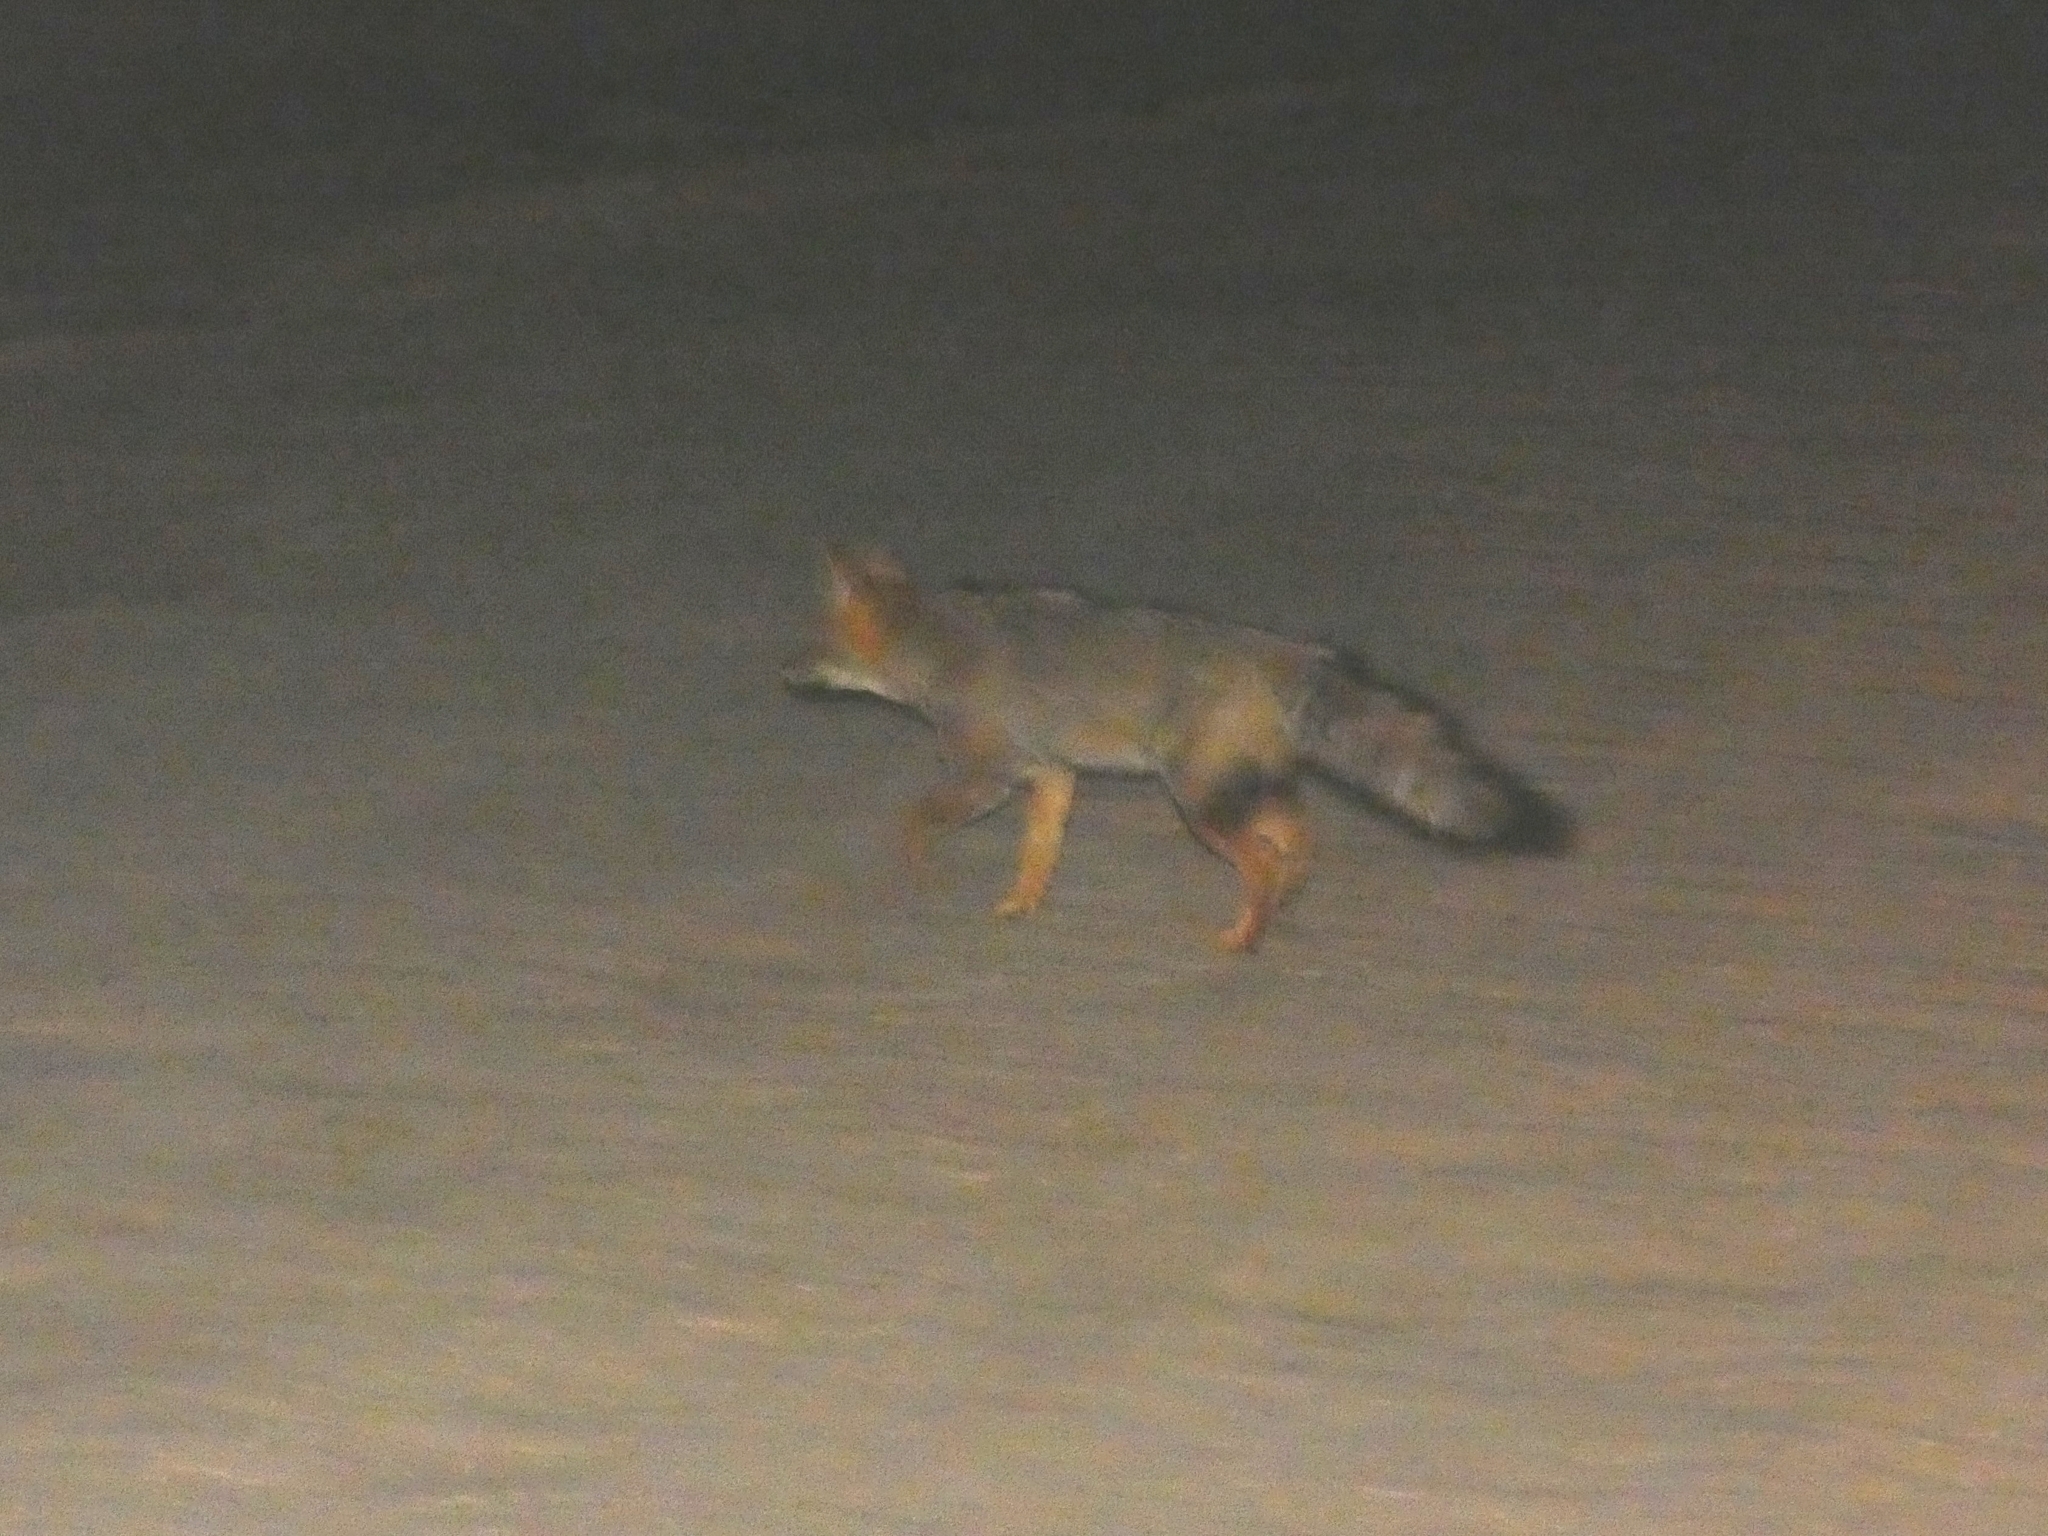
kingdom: Animalia
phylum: Chordata
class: Mammalia
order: Carnivora
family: Canidae
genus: Lycalopex
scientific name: Lycalopex gymnocercus
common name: Pampas fox
